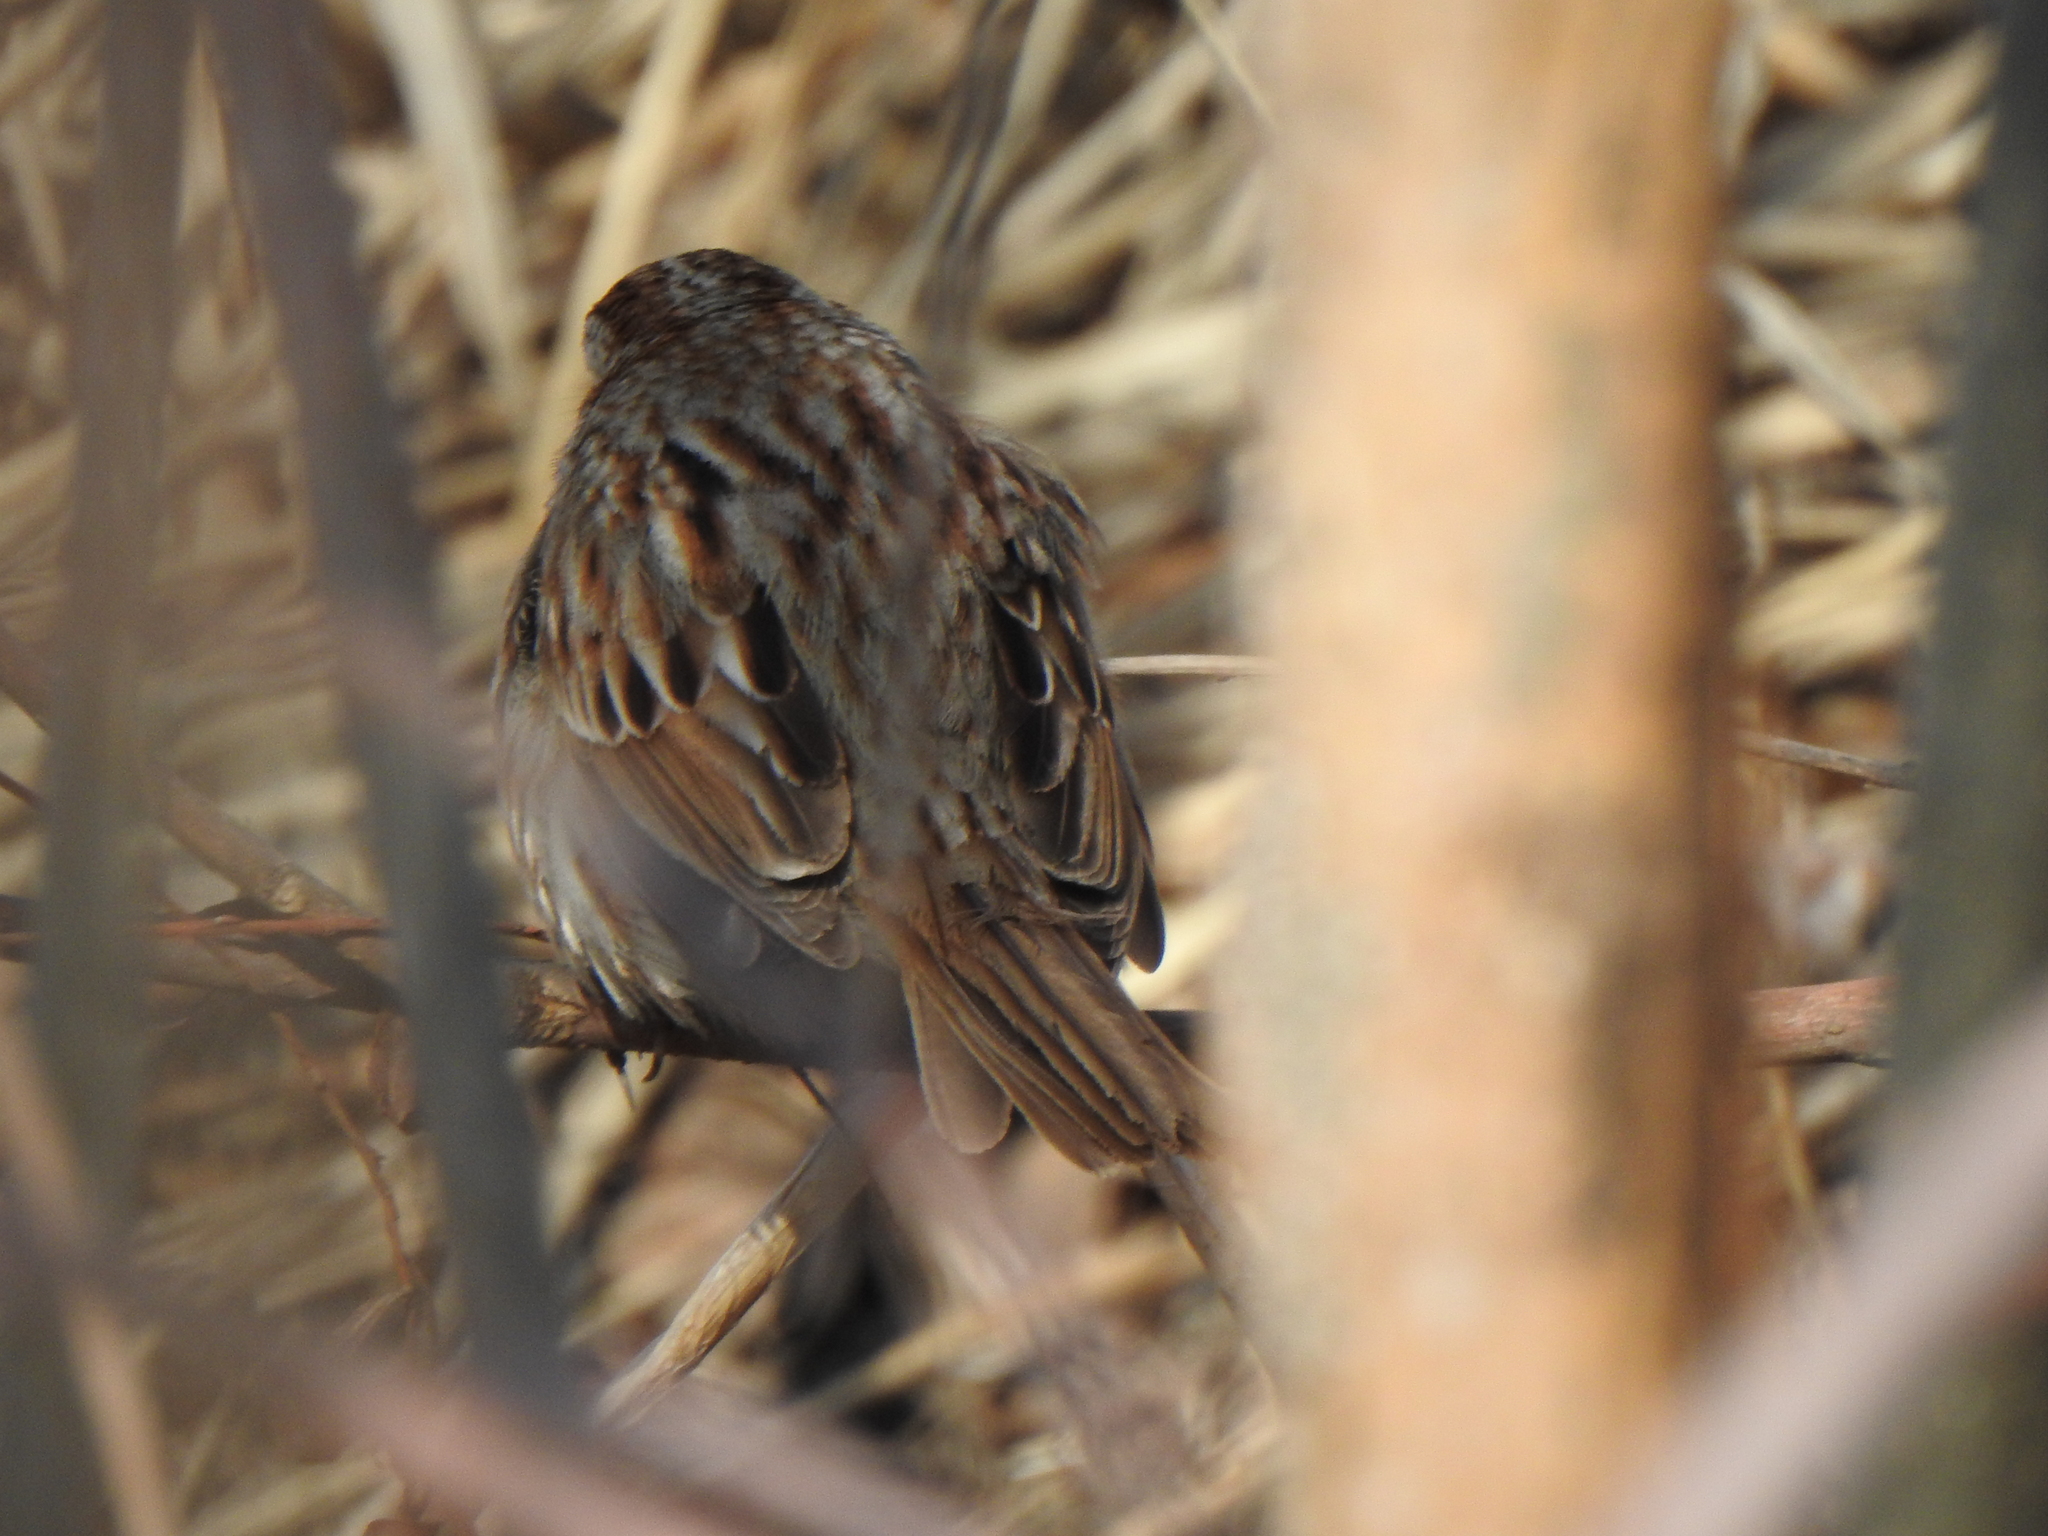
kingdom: Animalia
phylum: Chordata
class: Aves
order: Passeriformes
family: Passerellidae
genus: Melospiza
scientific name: Melospiza melodia
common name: Song sparrow
